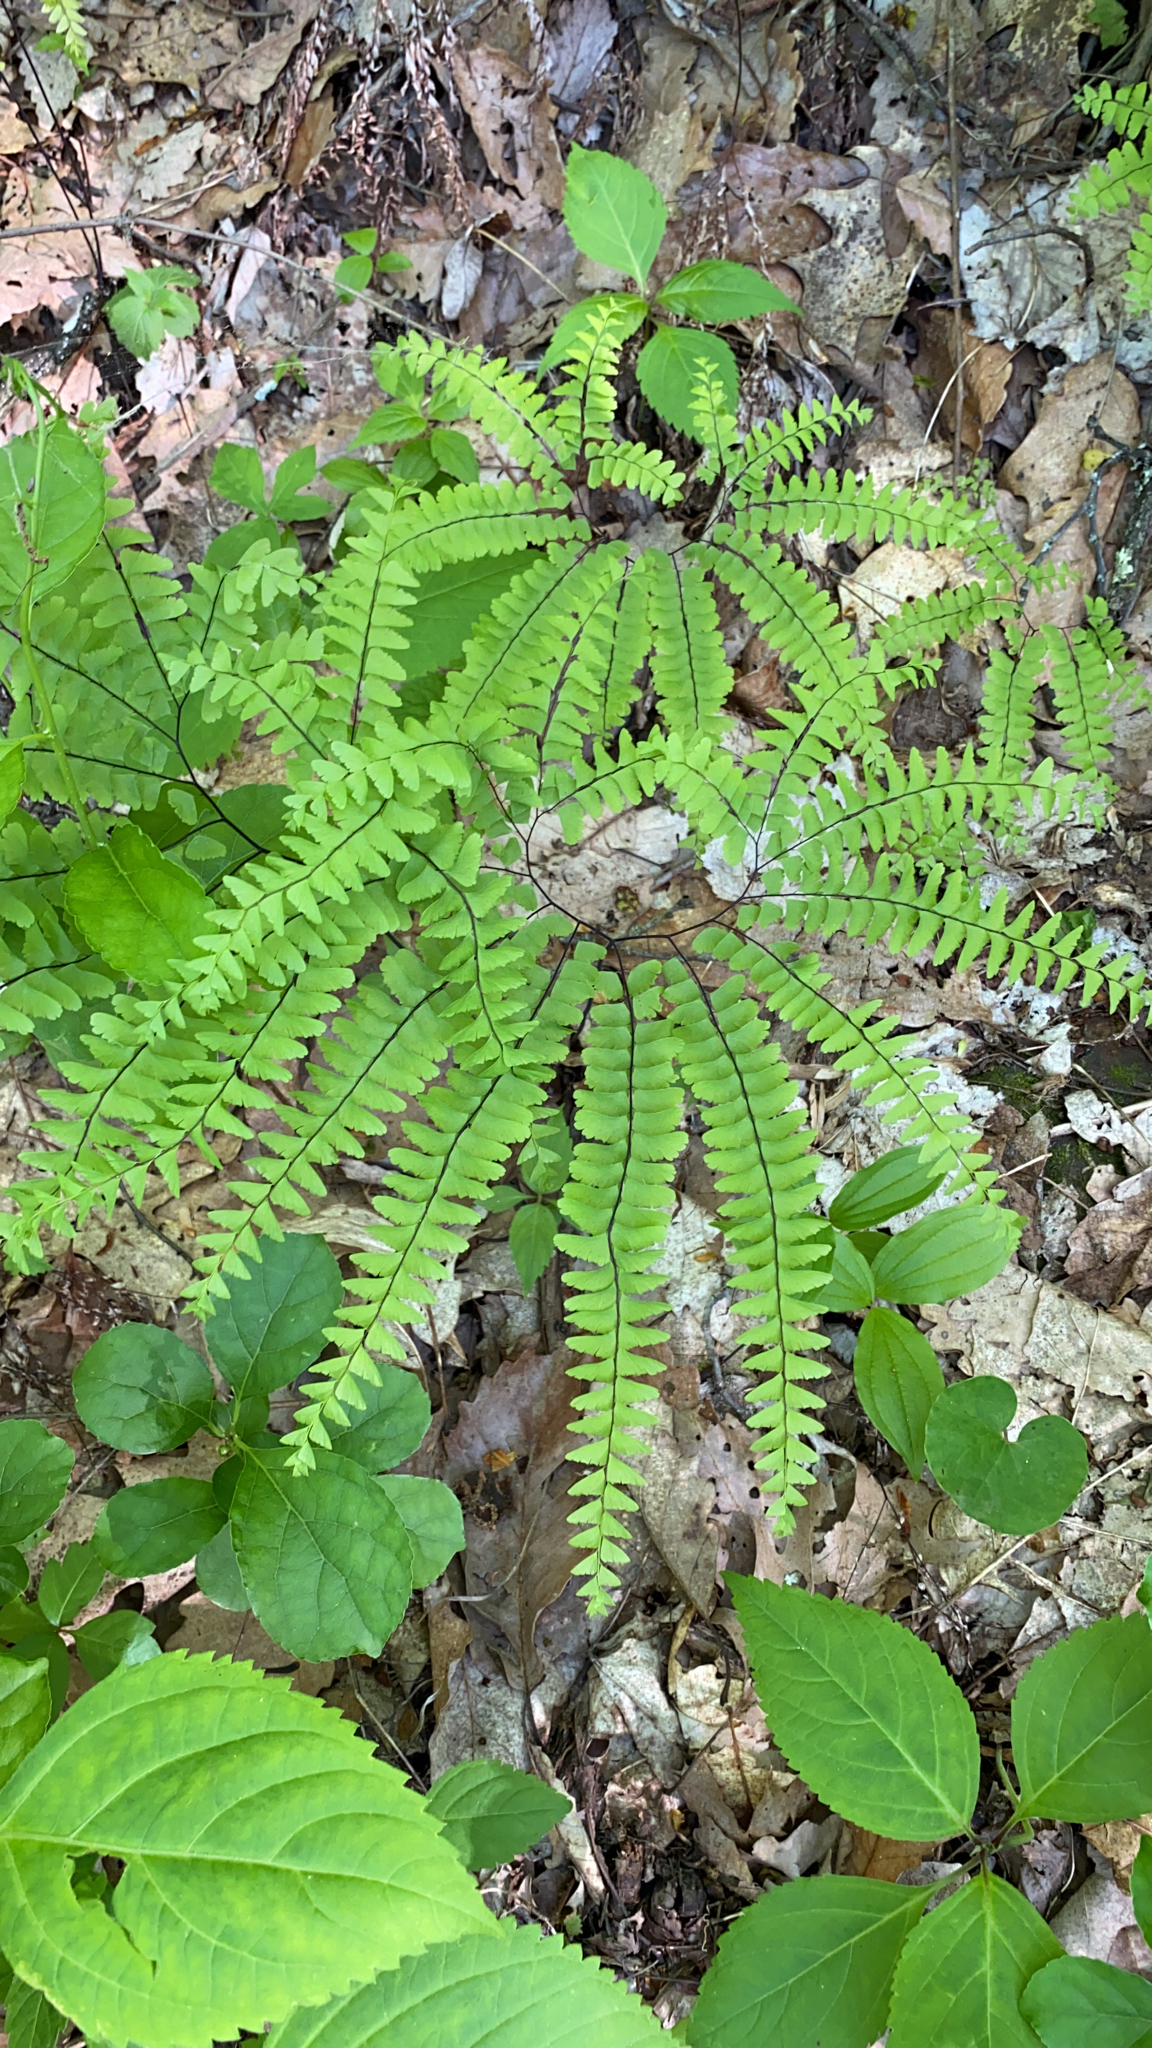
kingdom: Plantae
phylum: Tracheophyta
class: Polypodiopsida
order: Polypodiales
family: Pteridaceae
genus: Adiantum
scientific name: Adiantum pedatum
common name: Five-finger fern
